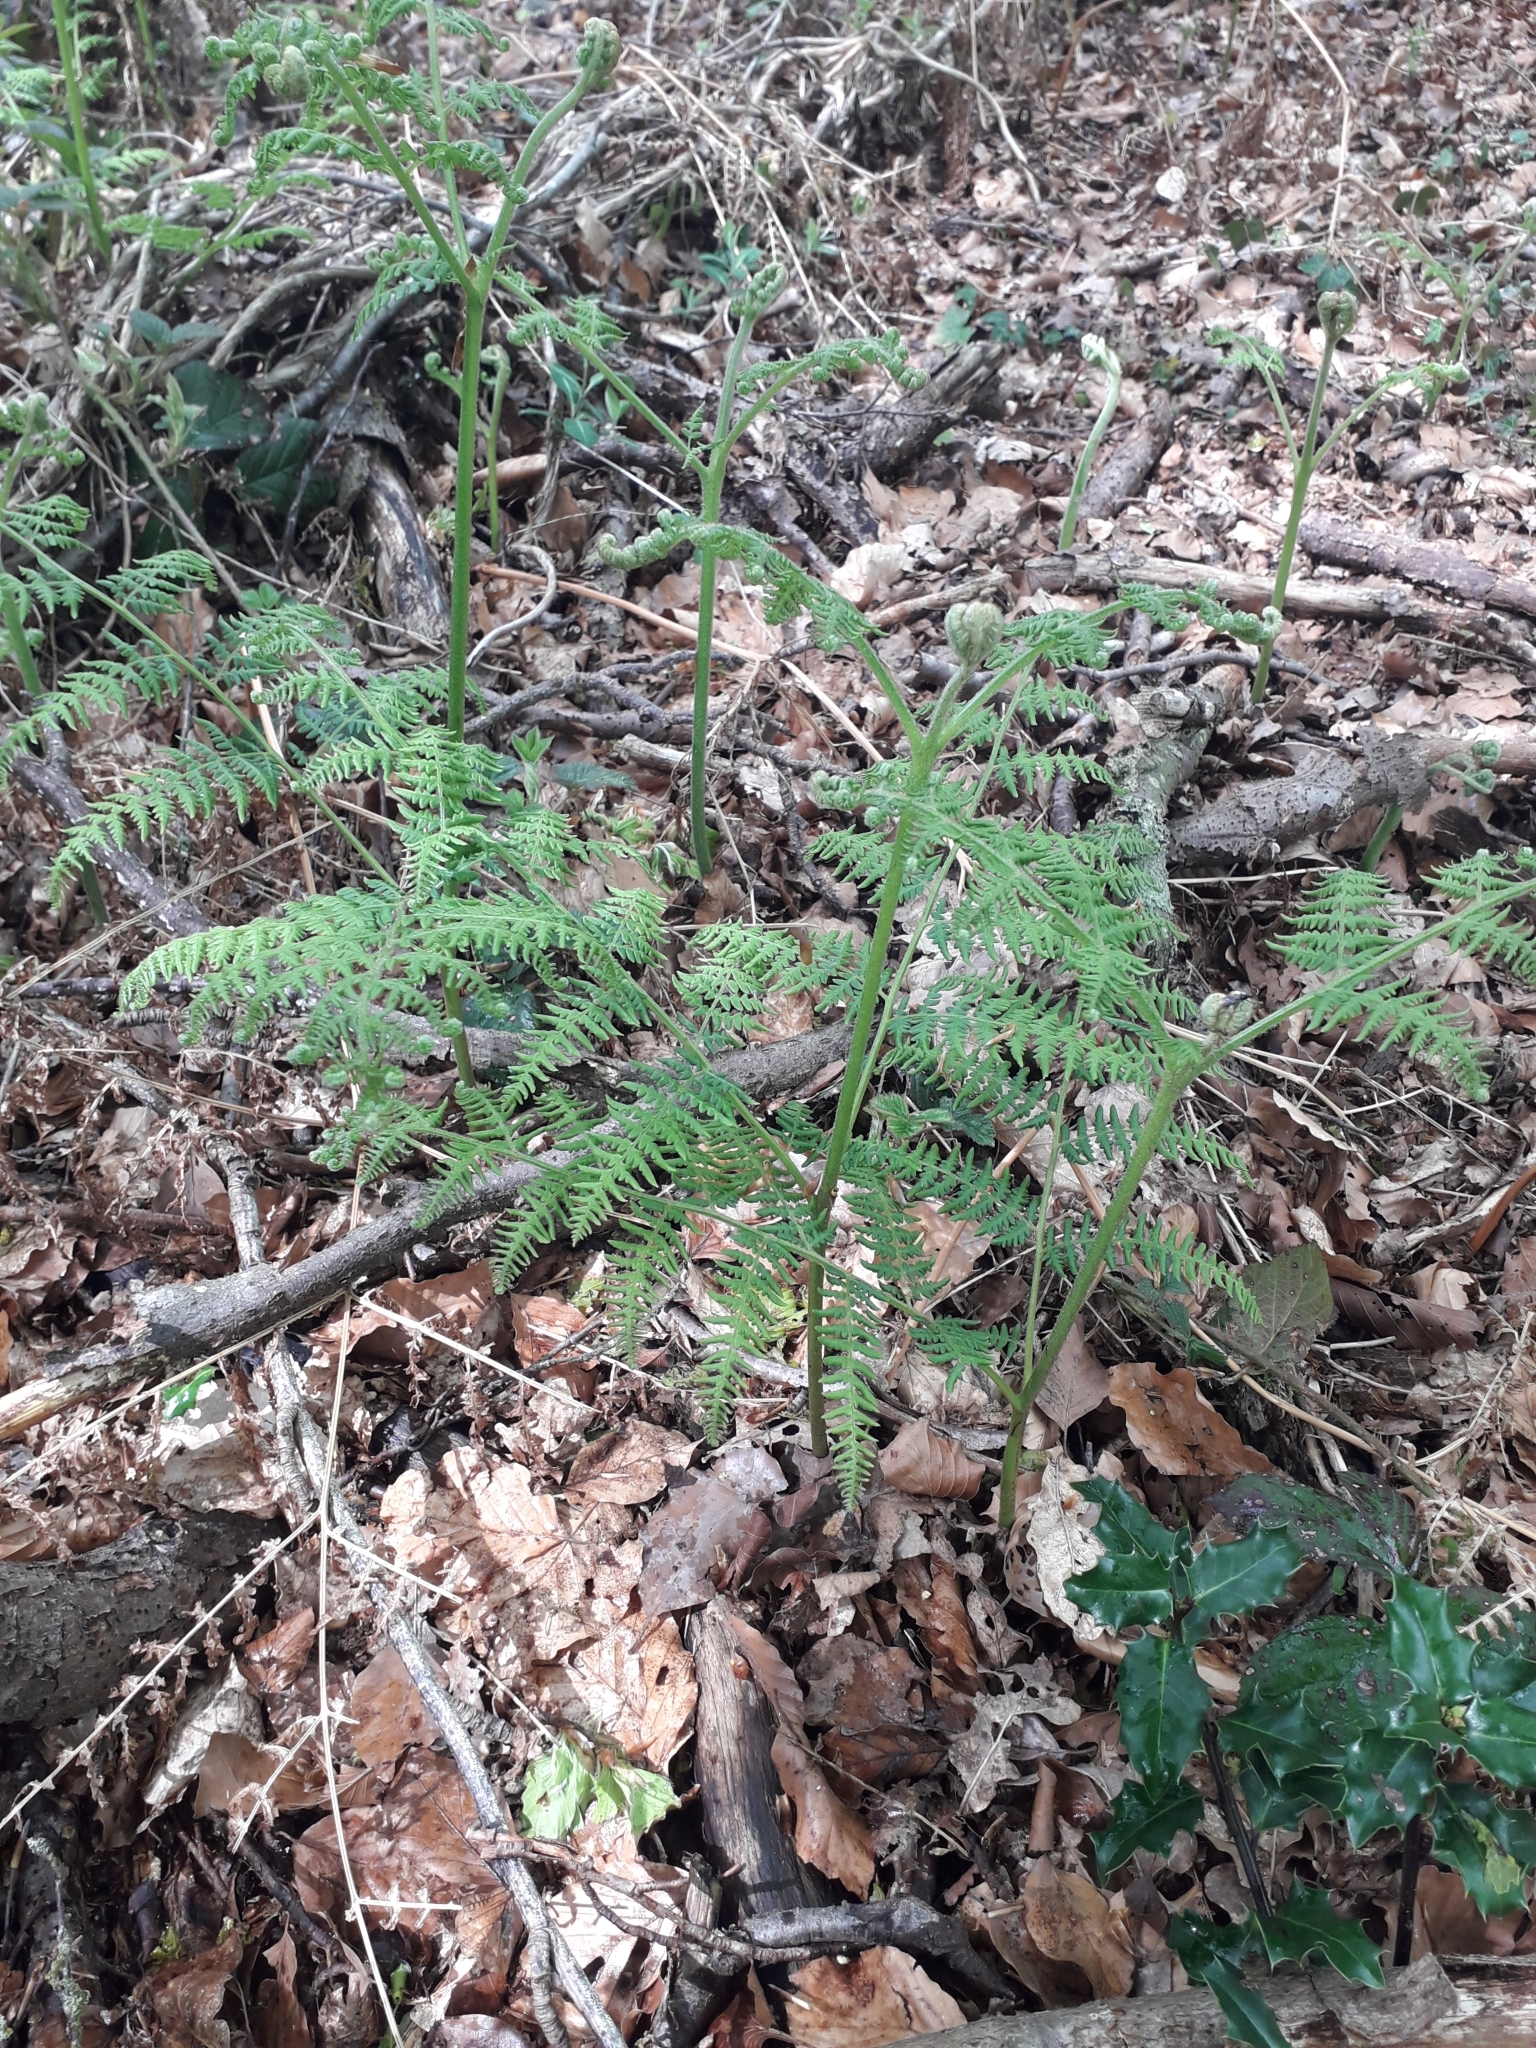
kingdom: Plantae
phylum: Tracheophyta
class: Polypodiopsida
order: Polypodiales
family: Dennstaedtiaceae
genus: Pteridium
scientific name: Pteridium aquilinum
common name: Bracken
